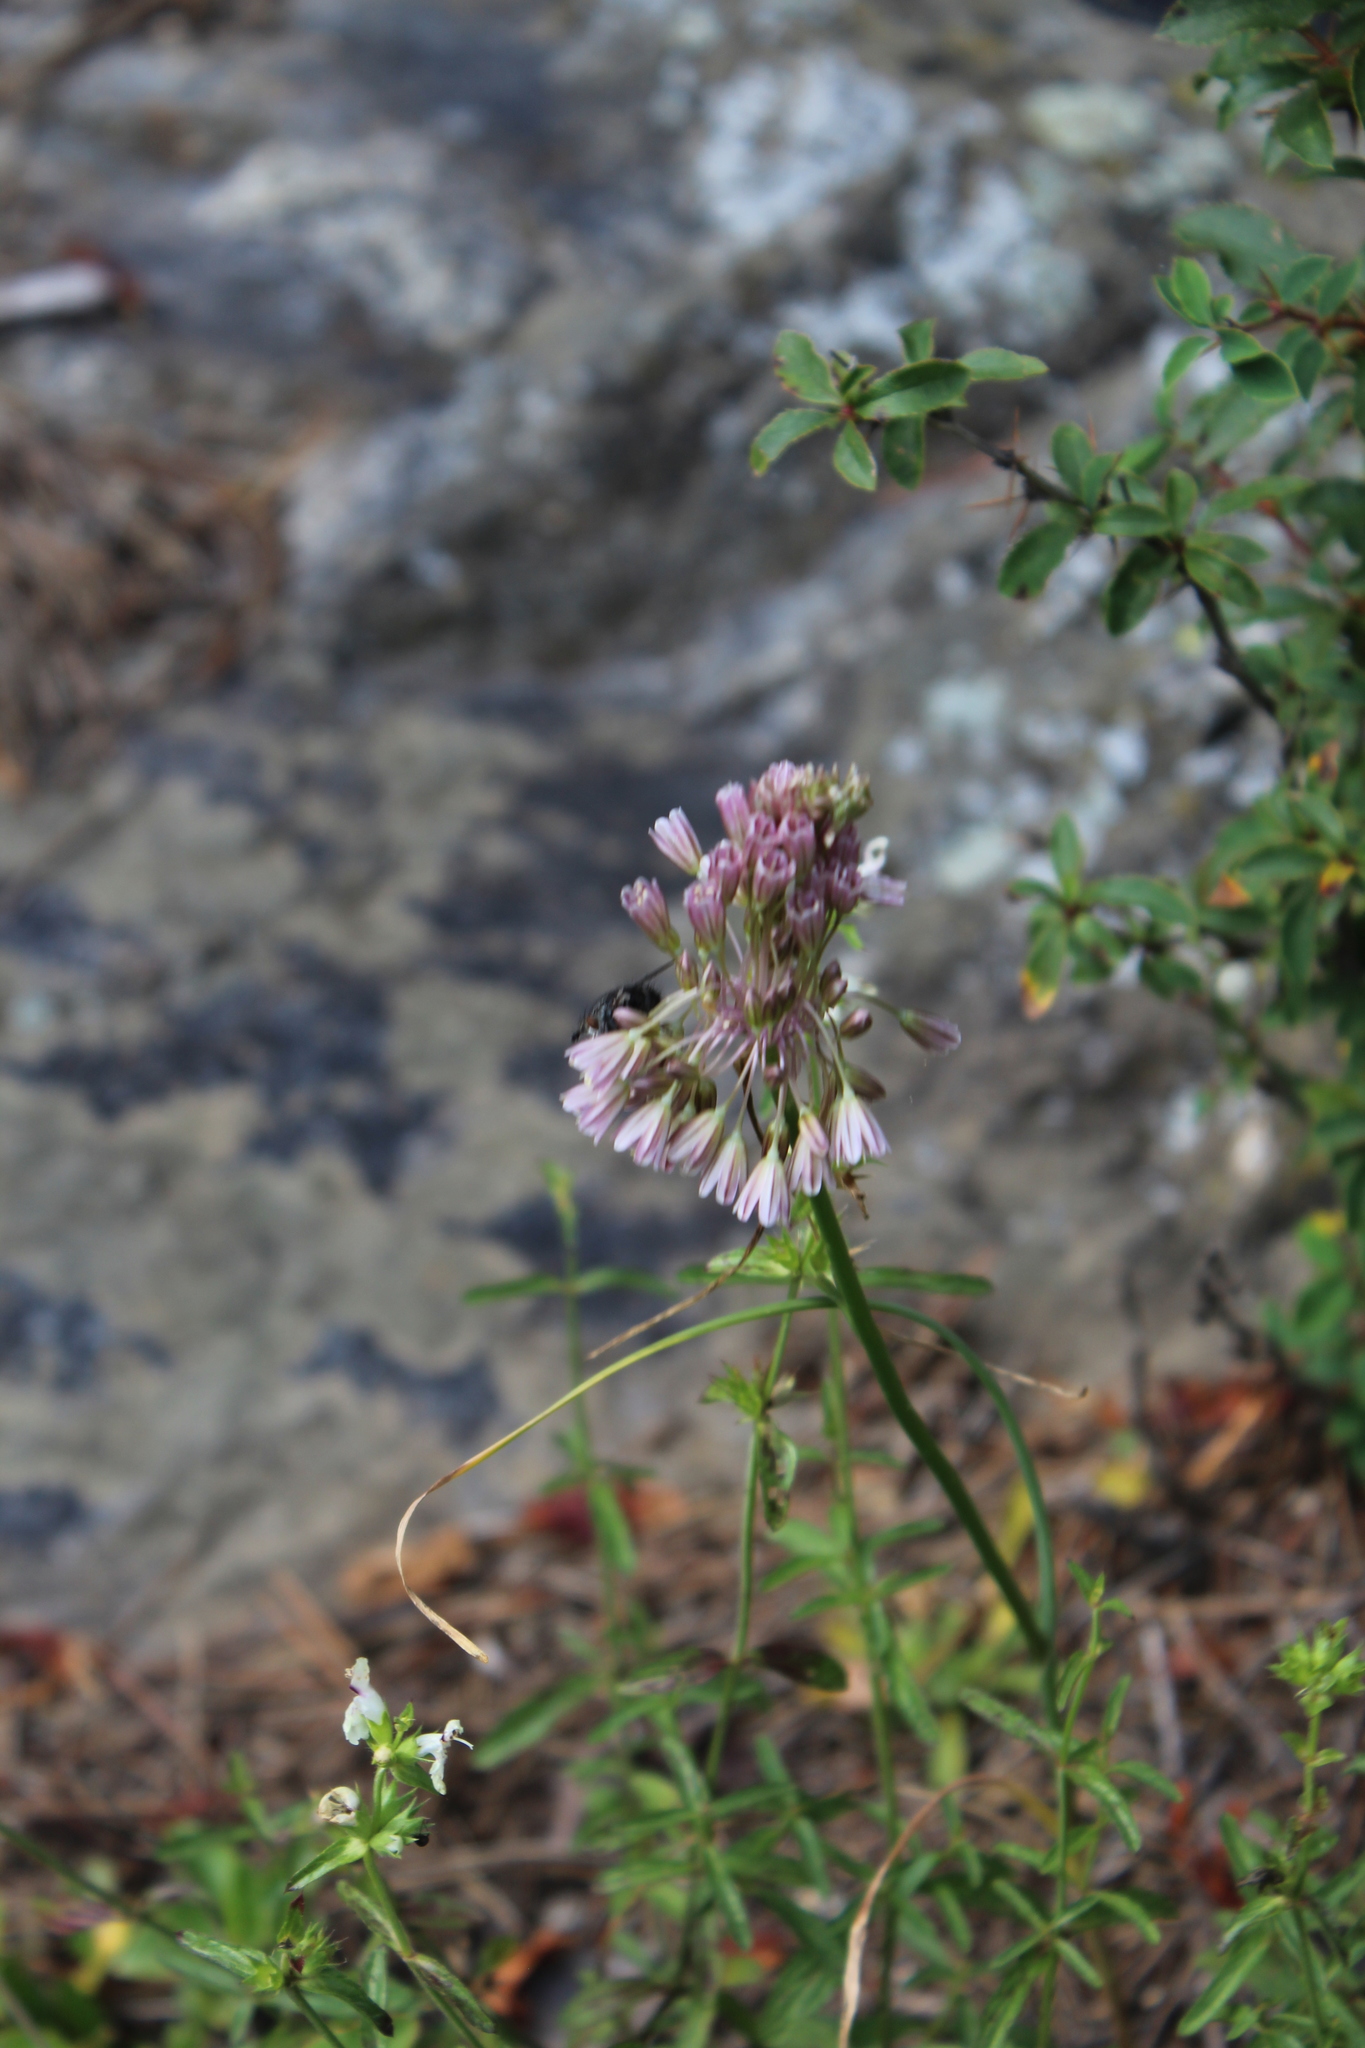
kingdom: Plantae
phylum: Tracheophyta
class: Liliopsida
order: Asparagales
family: Amaryllidaceae
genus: Allium
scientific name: Allium kunthianum
